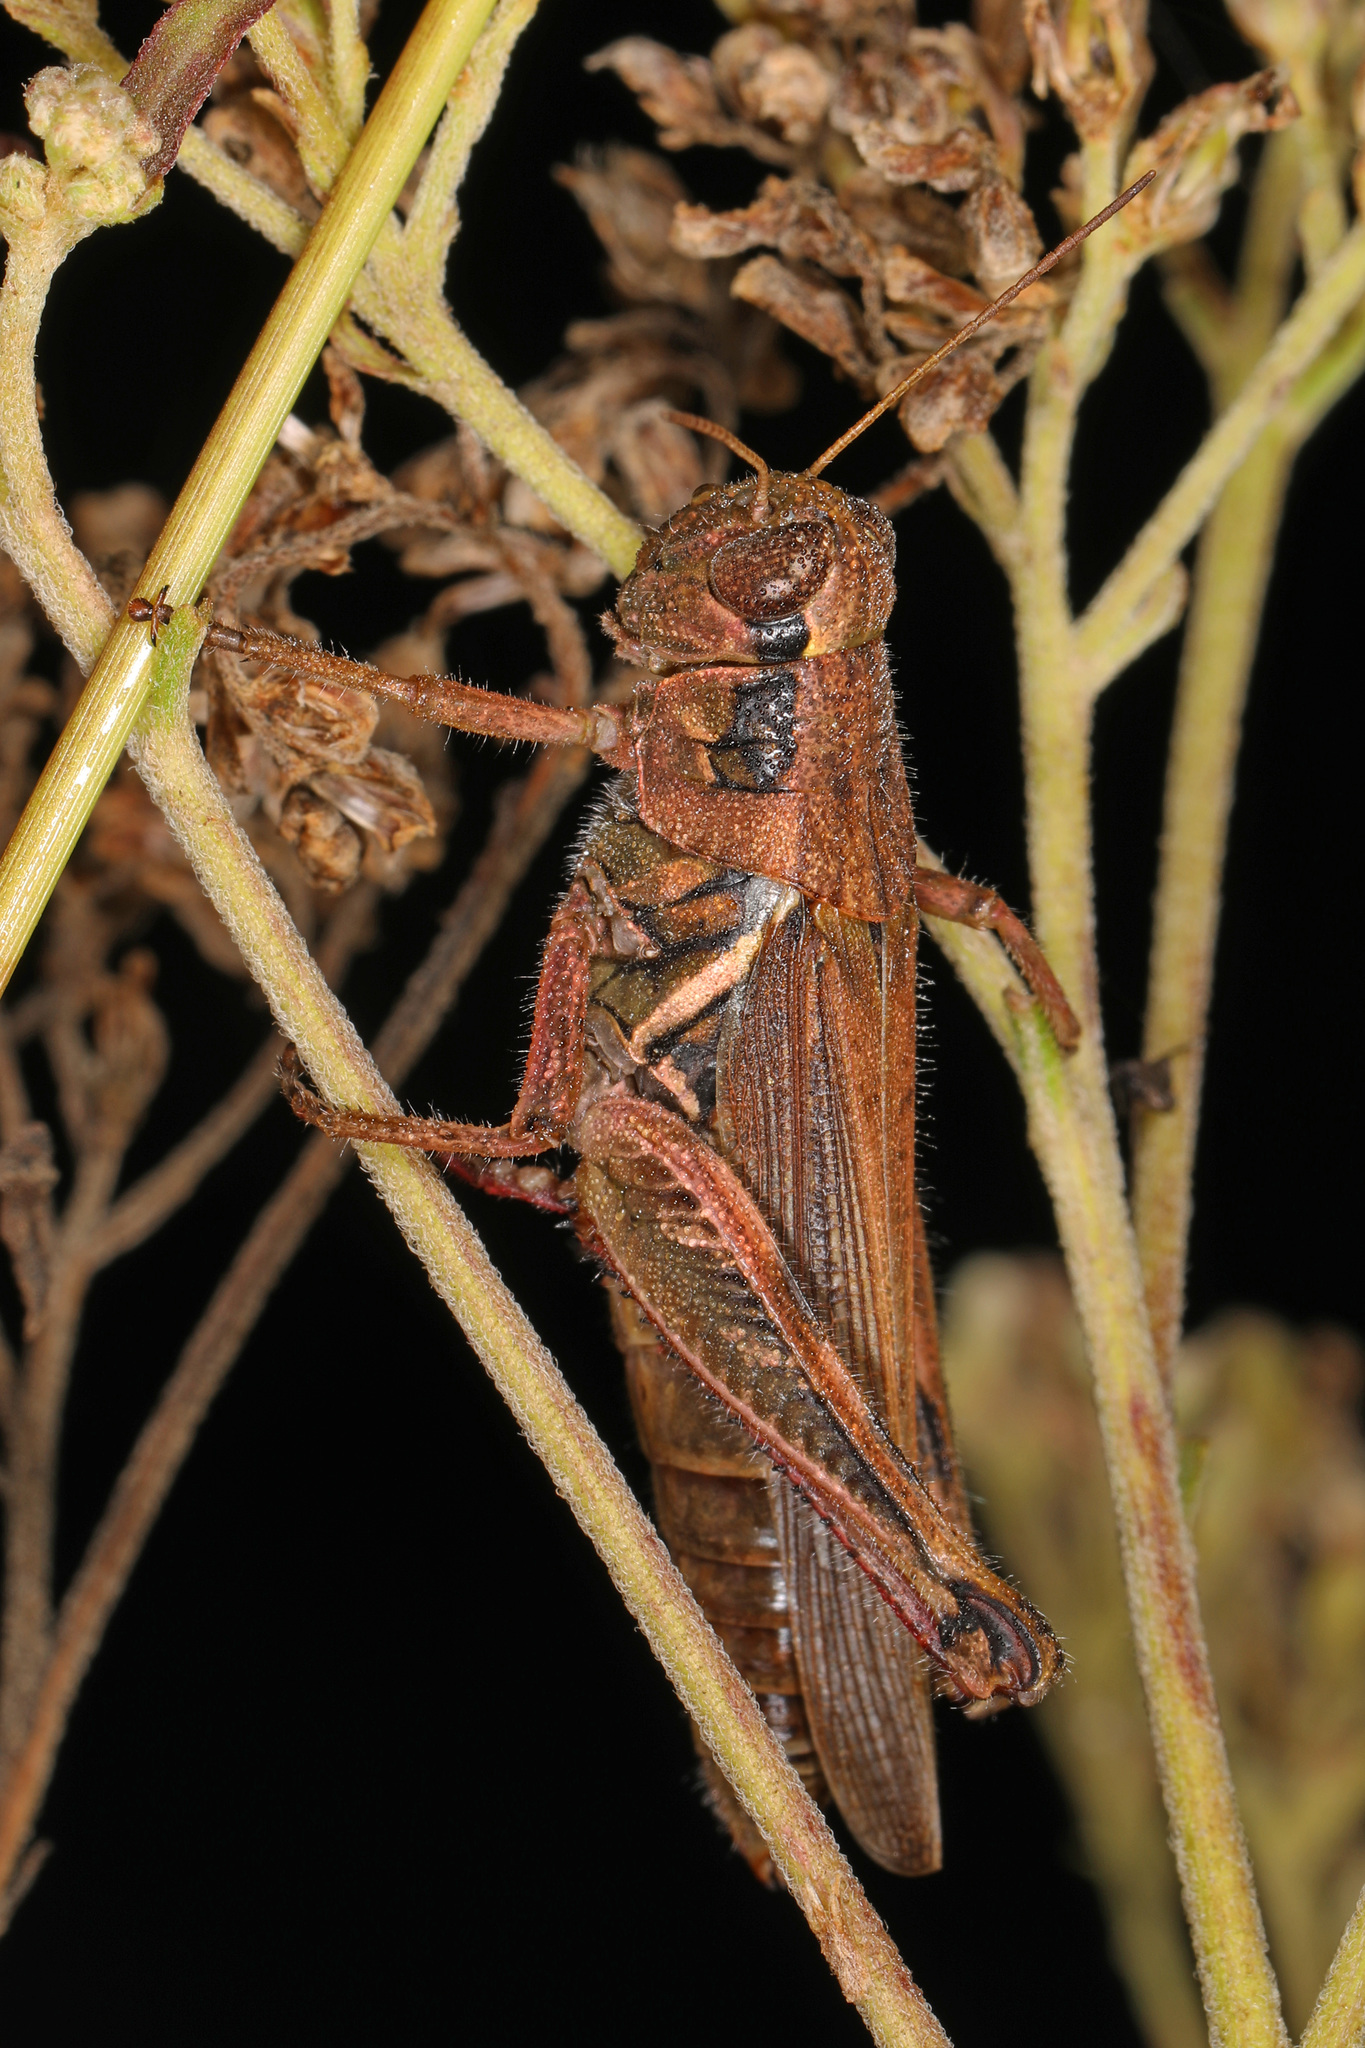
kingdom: Animalia
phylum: Arthropoda
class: Insecta
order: Orthoptera
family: Acrididae
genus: Melanoplus
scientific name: Melanoplus femurrubrum
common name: Red-legged grasshopper
